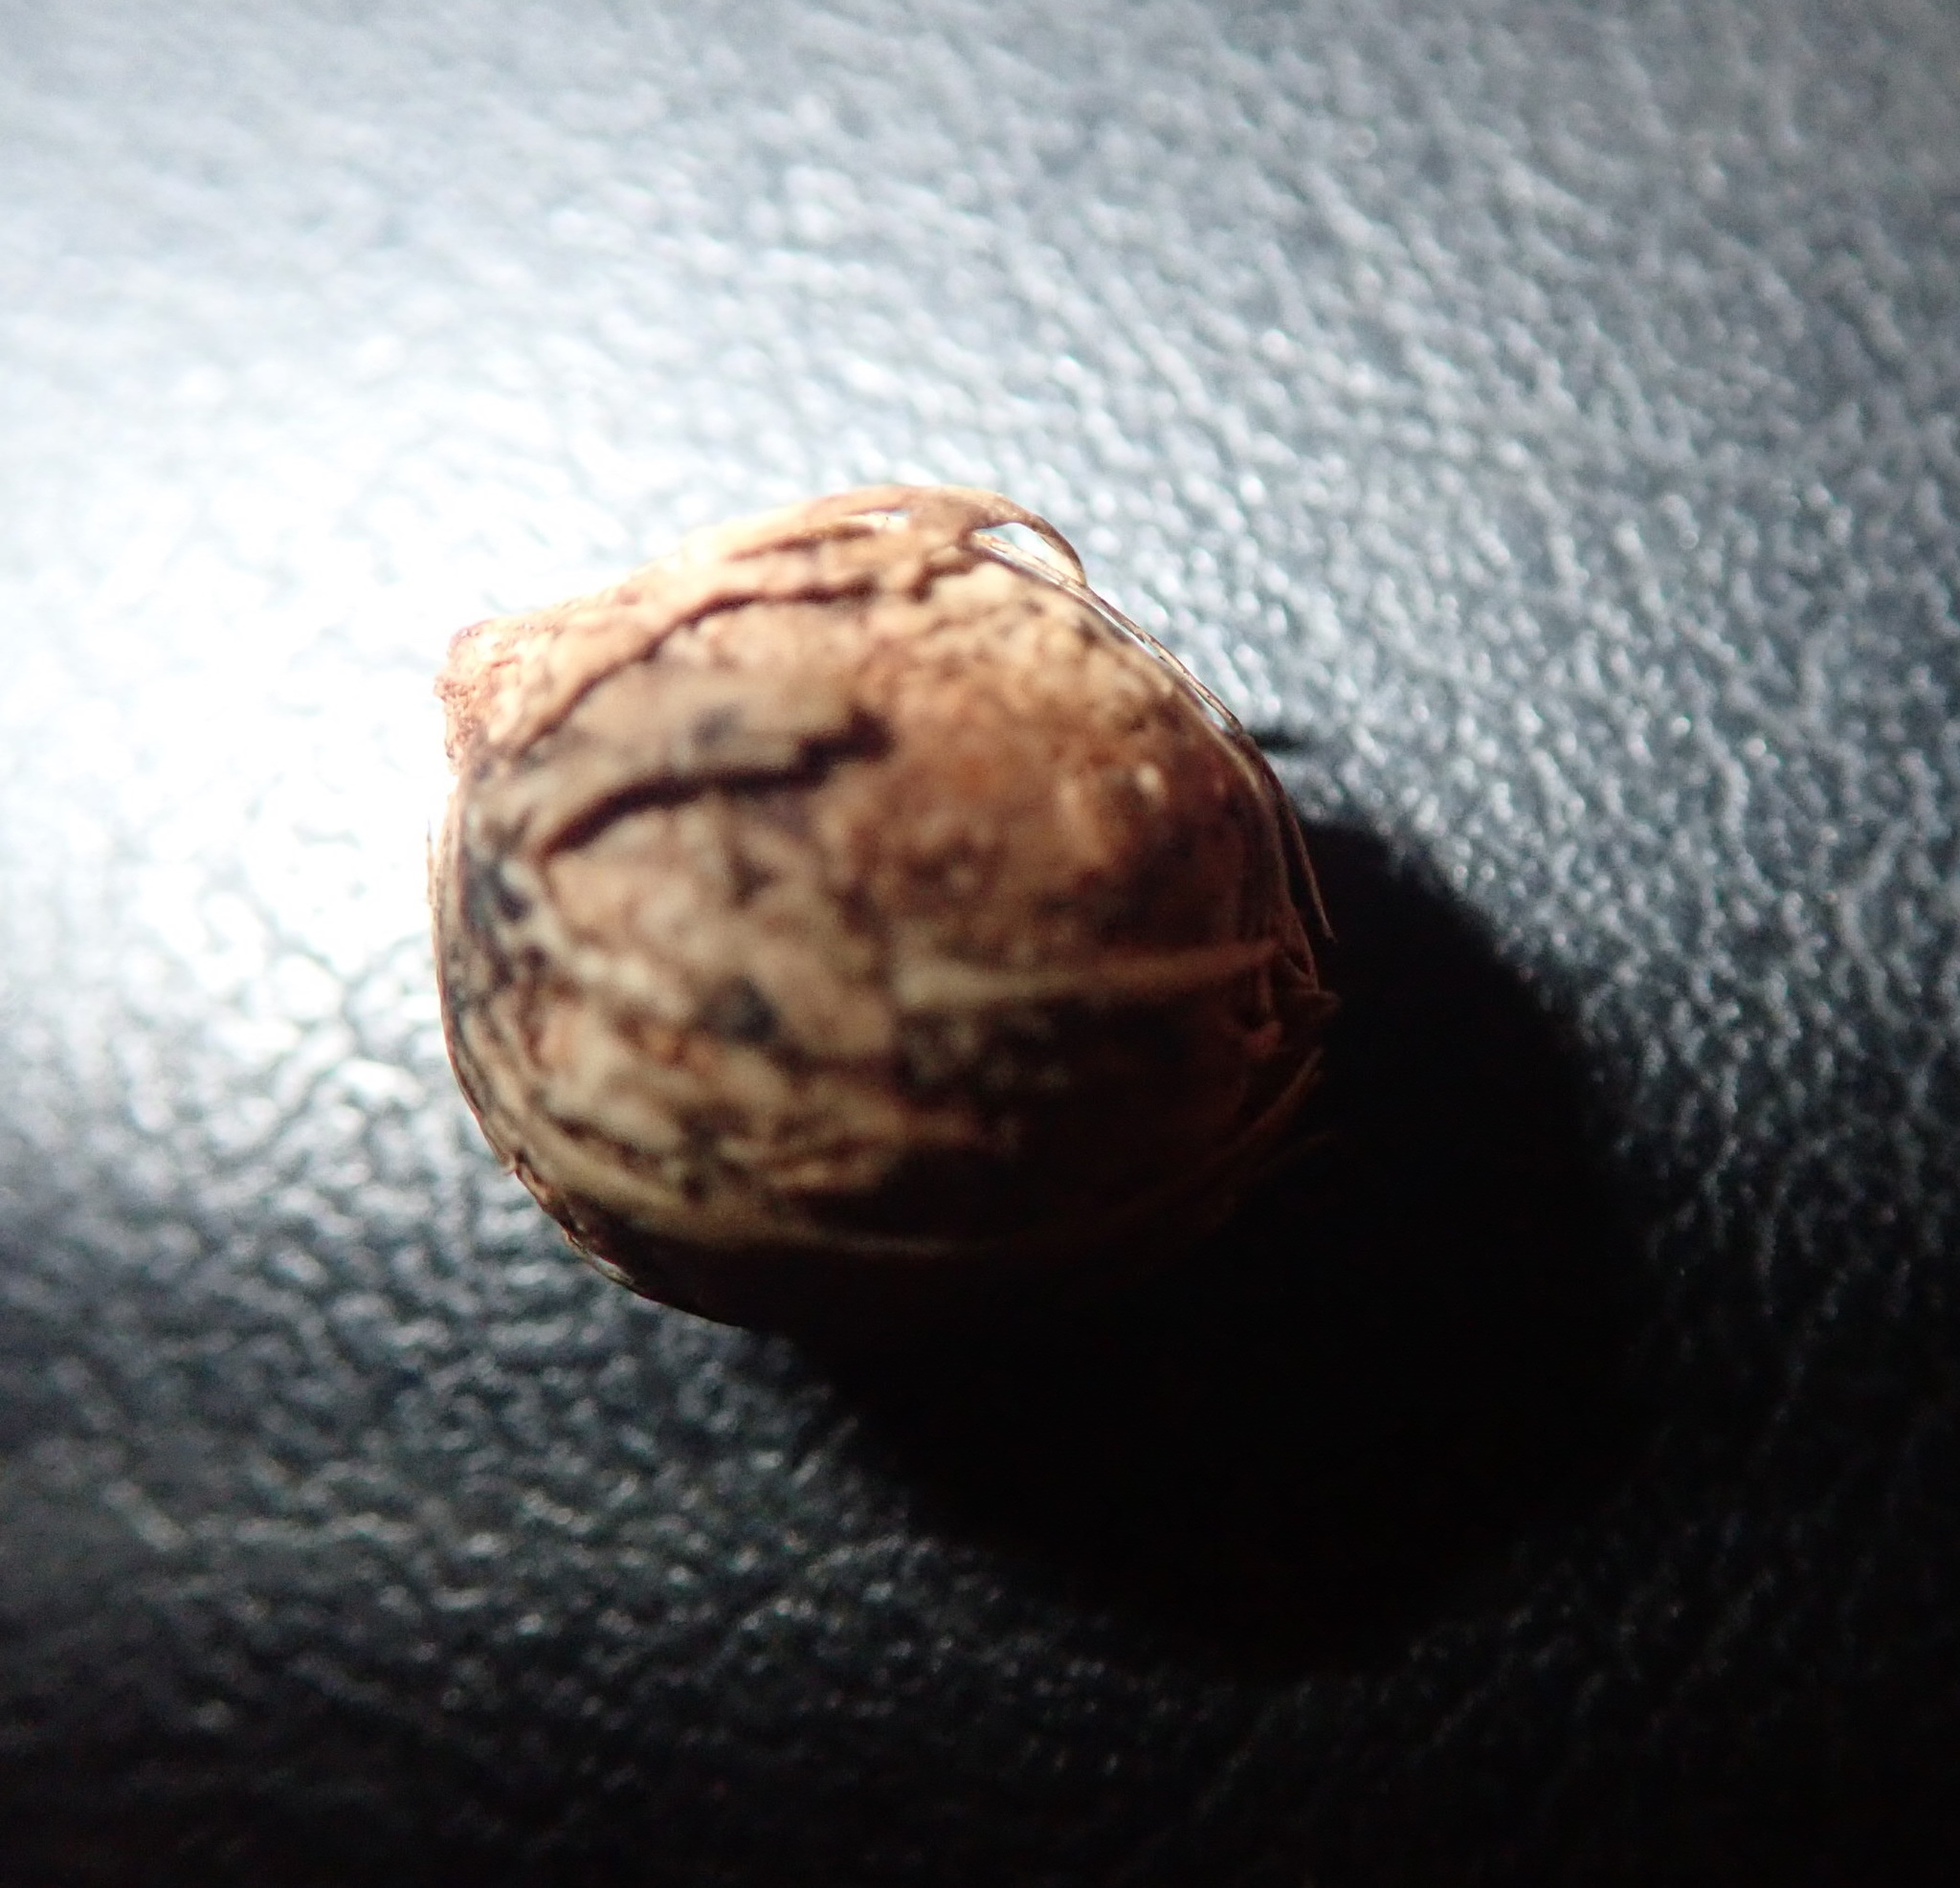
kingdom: Plantae
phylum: Tracheophyta
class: Liliopsida
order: Arecales
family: Arecaceae
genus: Archontophoenix
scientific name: Archontophoenix cunninghamiana
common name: Piccabeen bangalow palm
